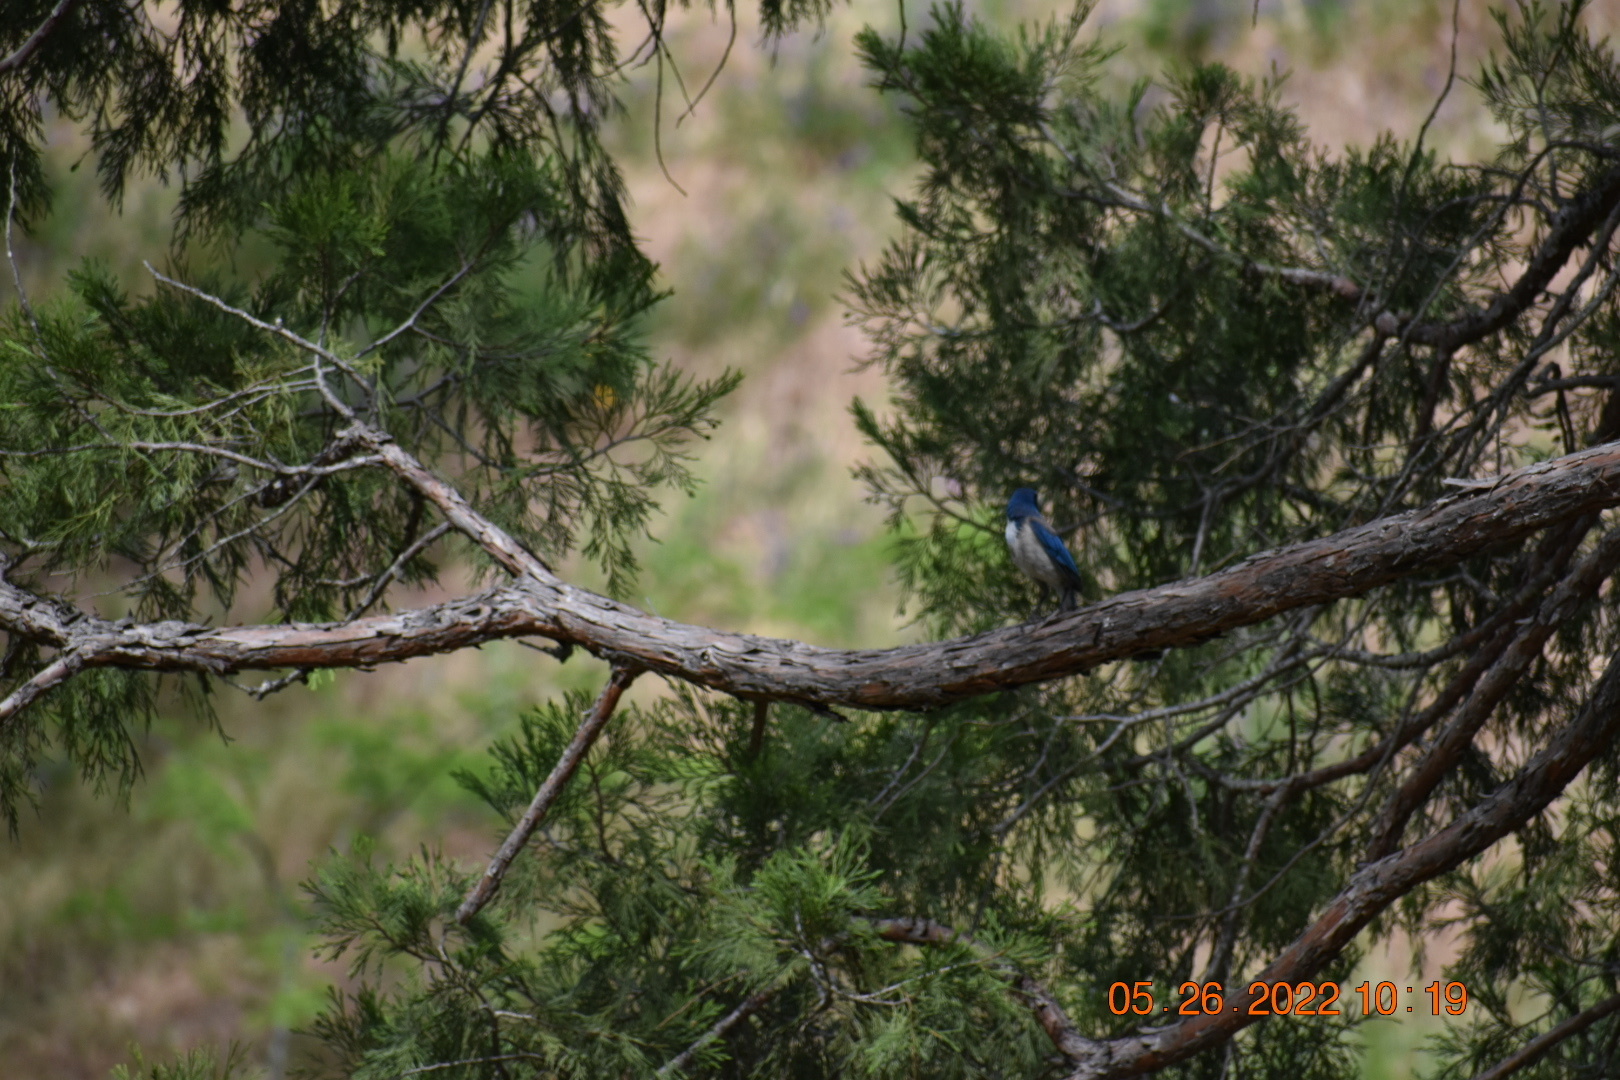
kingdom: Animalia
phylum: Chordata
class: Aves
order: Passeriformes
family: Corvidae
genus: Aphelocoma
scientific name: Aphelocoma californica
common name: California scrub-jay
